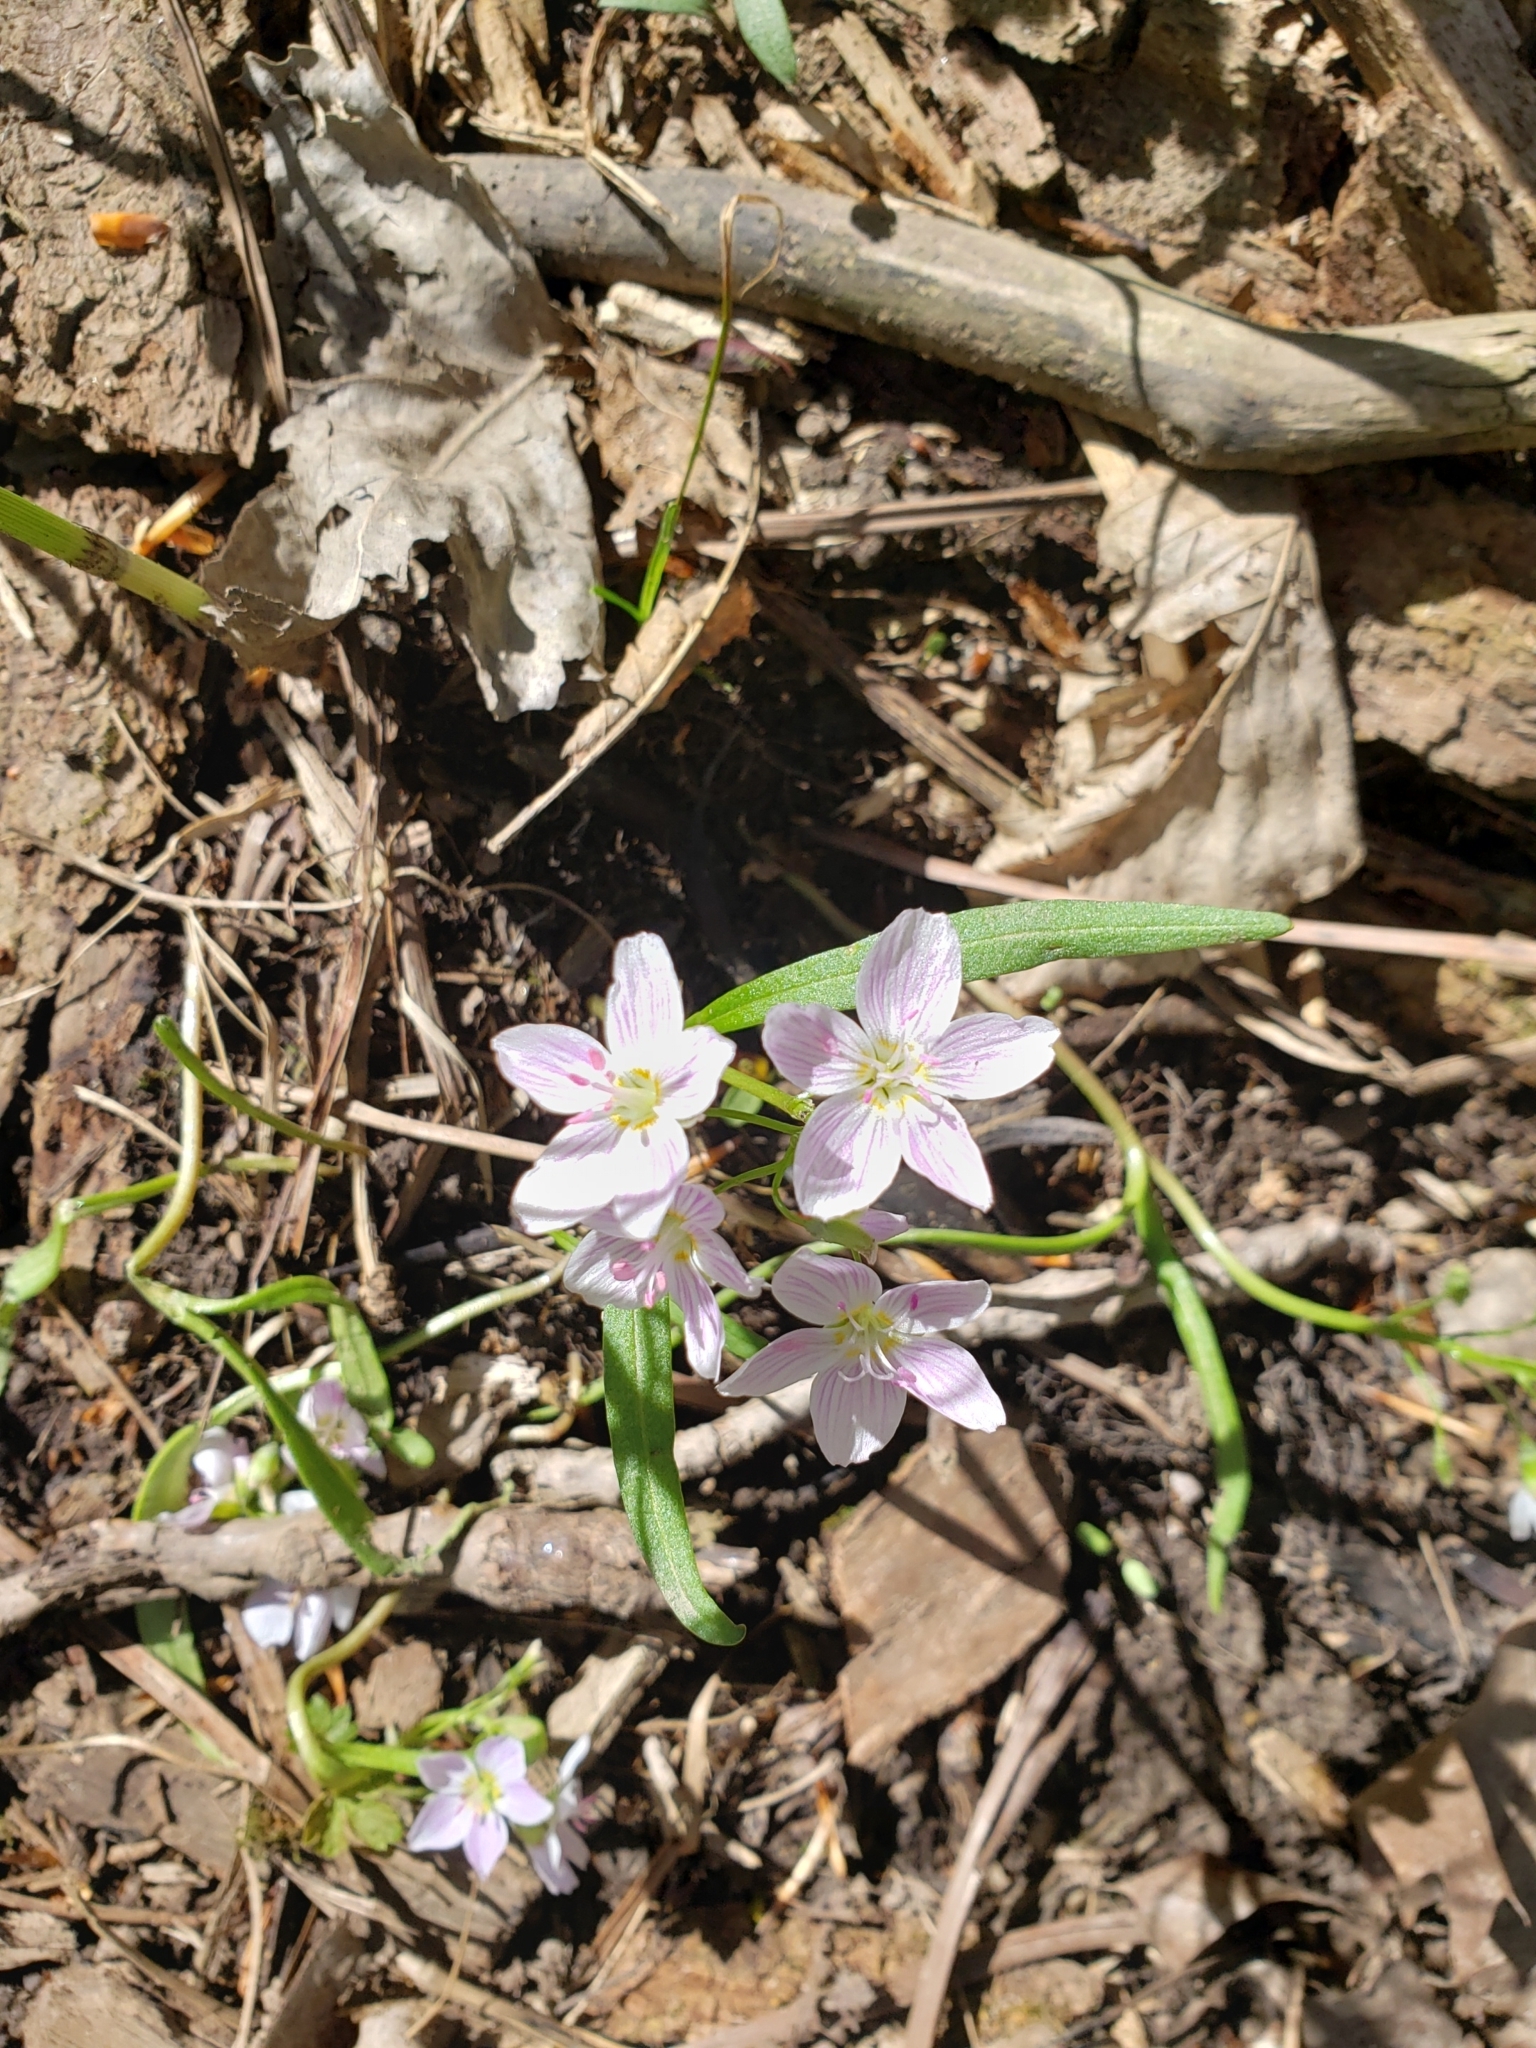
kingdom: Plantae
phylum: Tracheophyta
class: Magnoliopsida
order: Caryophyllales
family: Montiaceae
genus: Claytonia
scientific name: Claytonia virginica
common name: Virginia springbeauty
